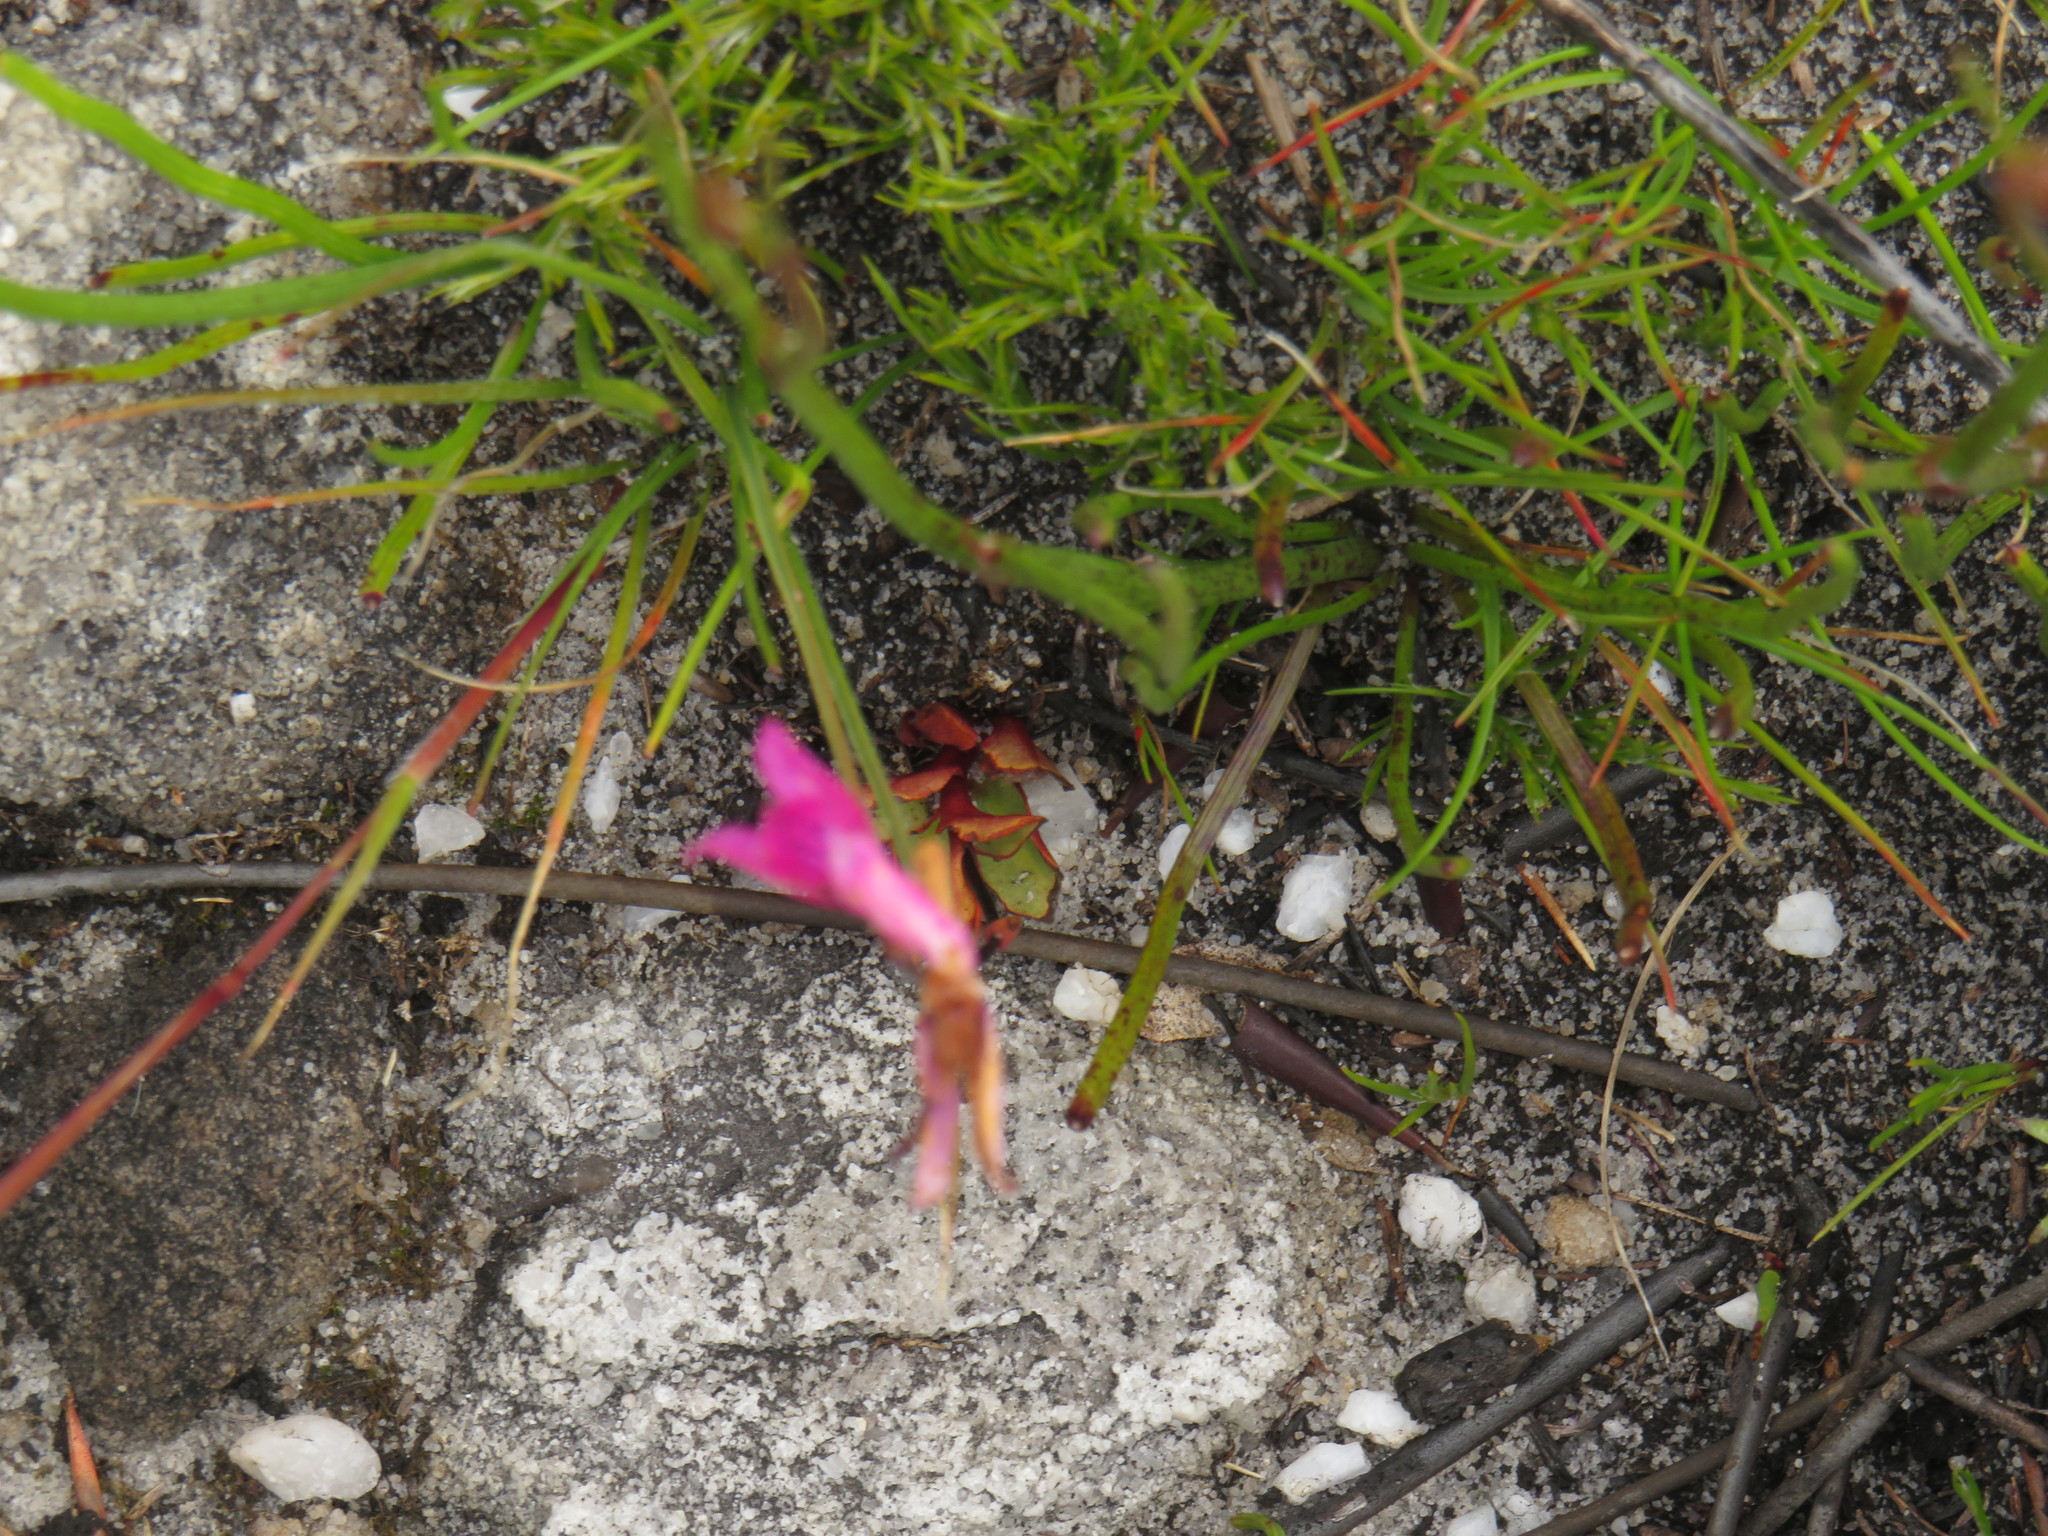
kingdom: Plantae
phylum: Tracheophyta
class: Liliopsida
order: Asparagales
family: Orchidaceae
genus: Disa
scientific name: Disa inflexa
